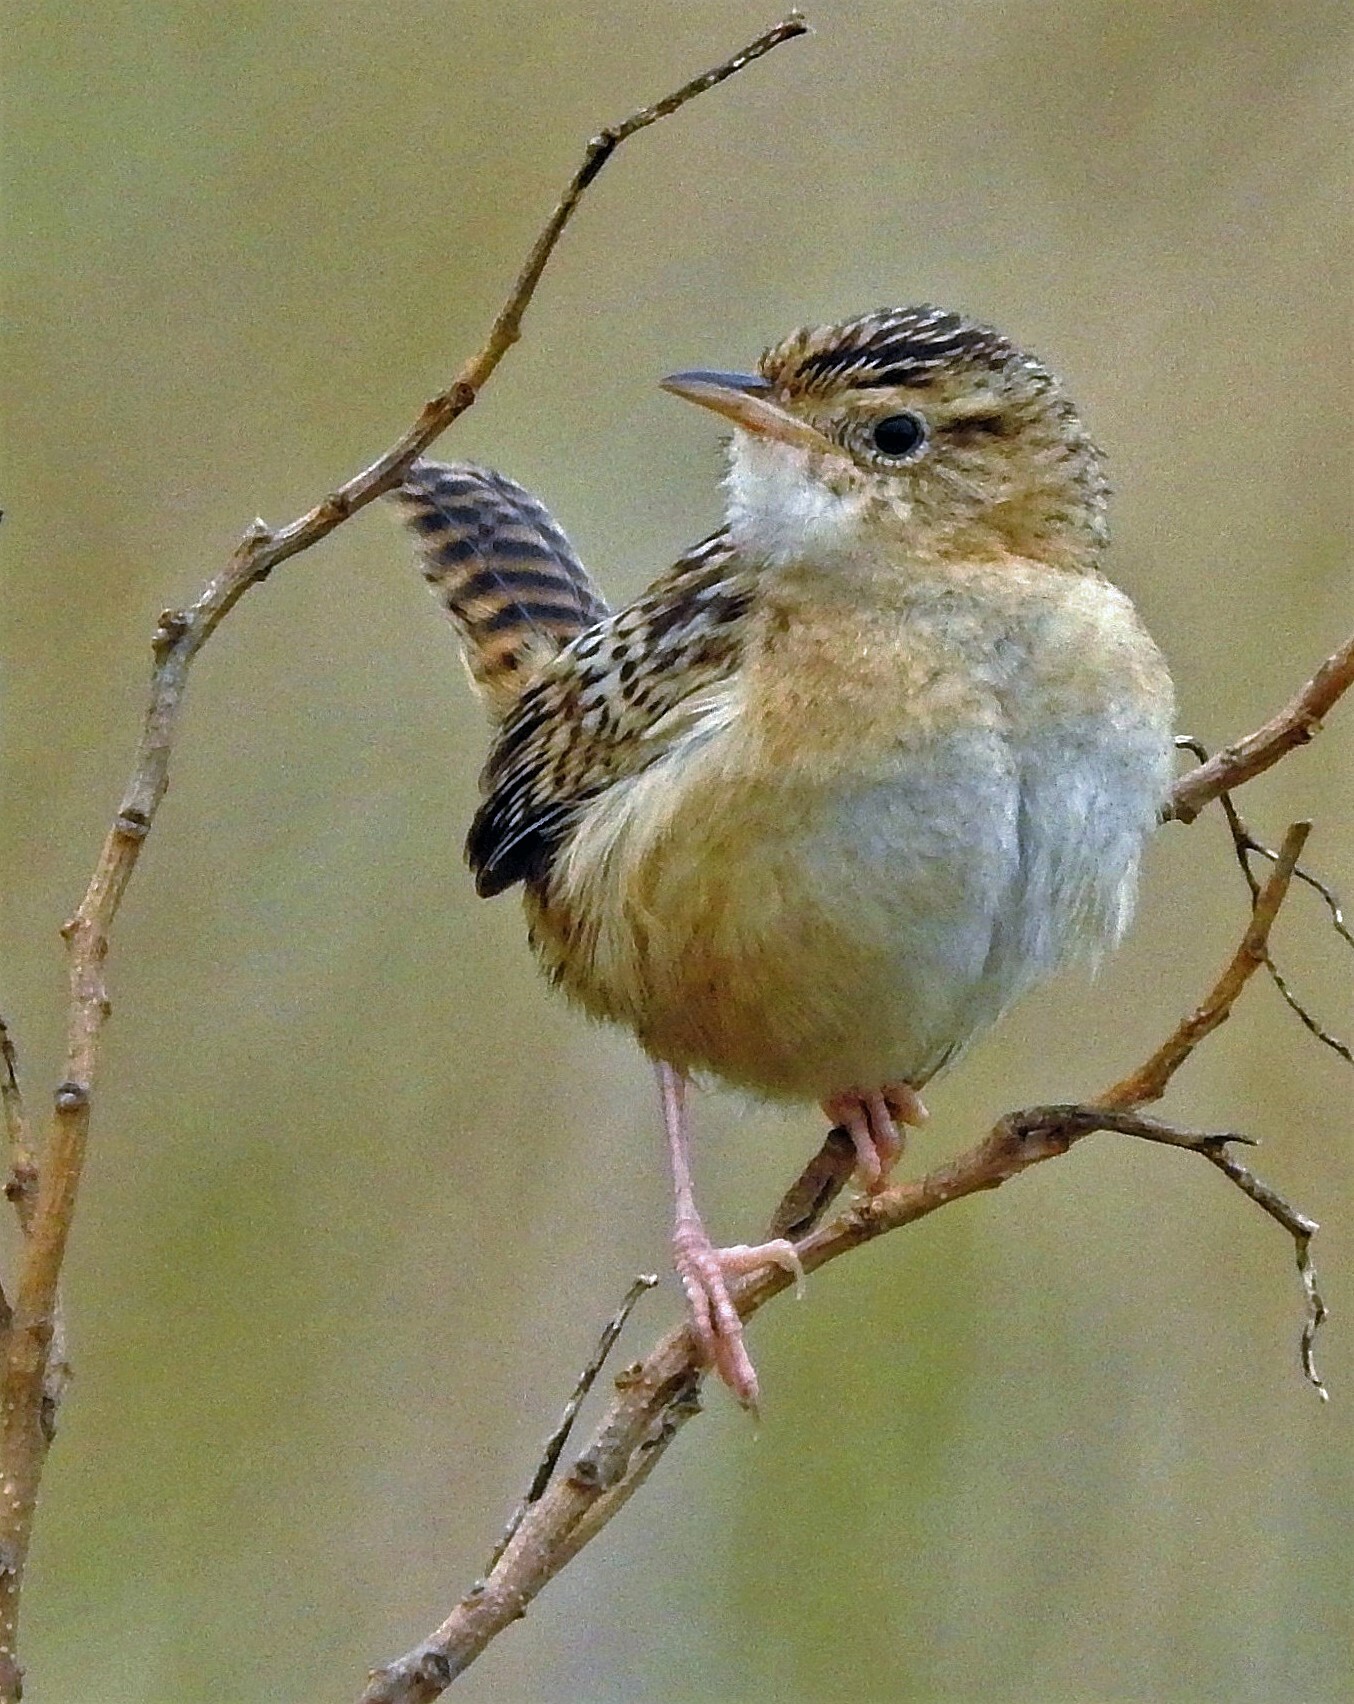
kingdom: Animalia
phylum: Chordata
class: Aves
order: Passeriformes
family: Troglodytidae
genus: Cistothorus
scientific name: Cistothorus platensis
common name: Sedge wren
